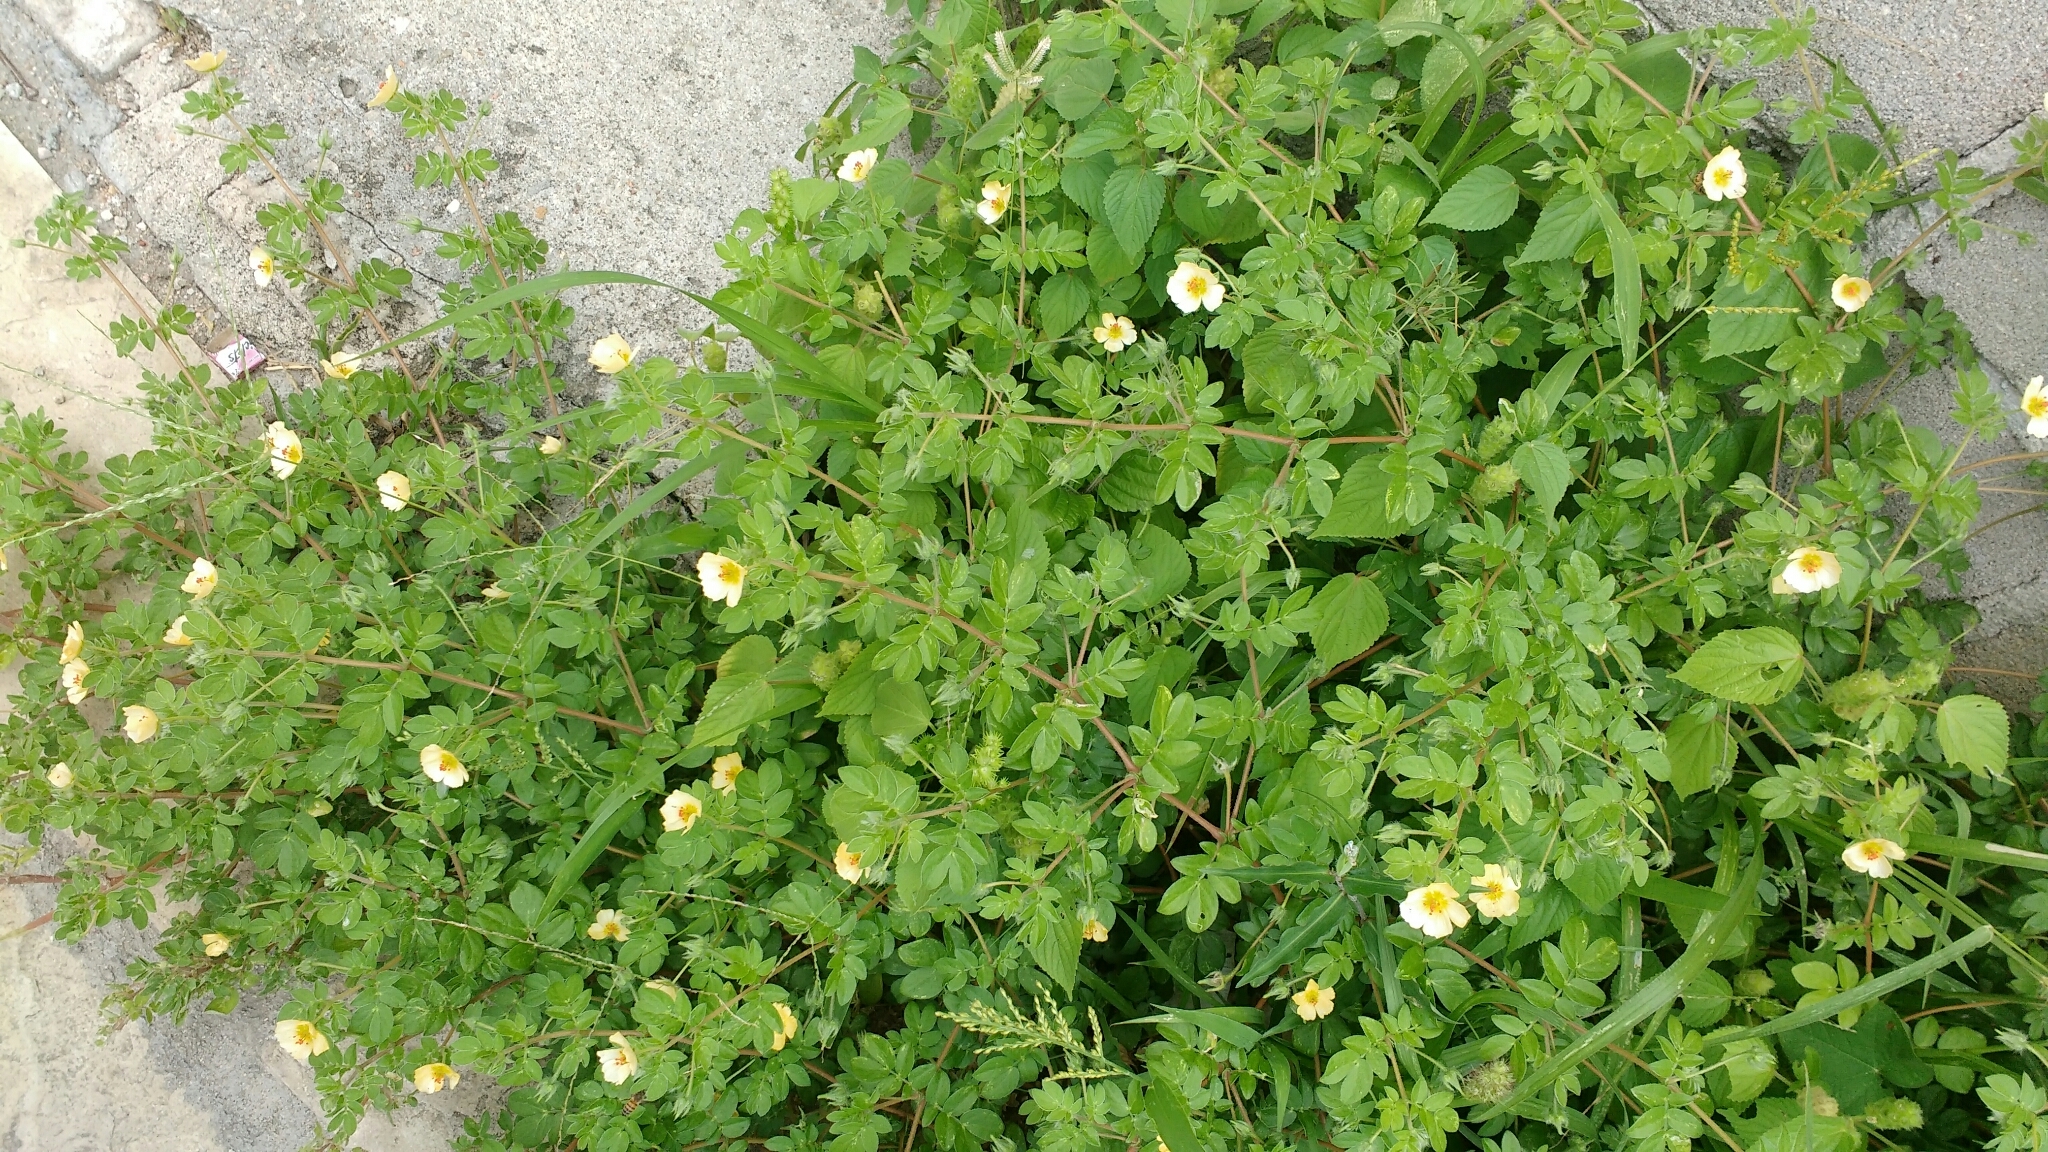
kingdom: Plantae
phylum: Tracheophyta
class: Magnoliopsida
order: Zygophyllales
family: Zygophyllaceae
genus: Kallstroemia
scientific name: Kallstroemia rosei
